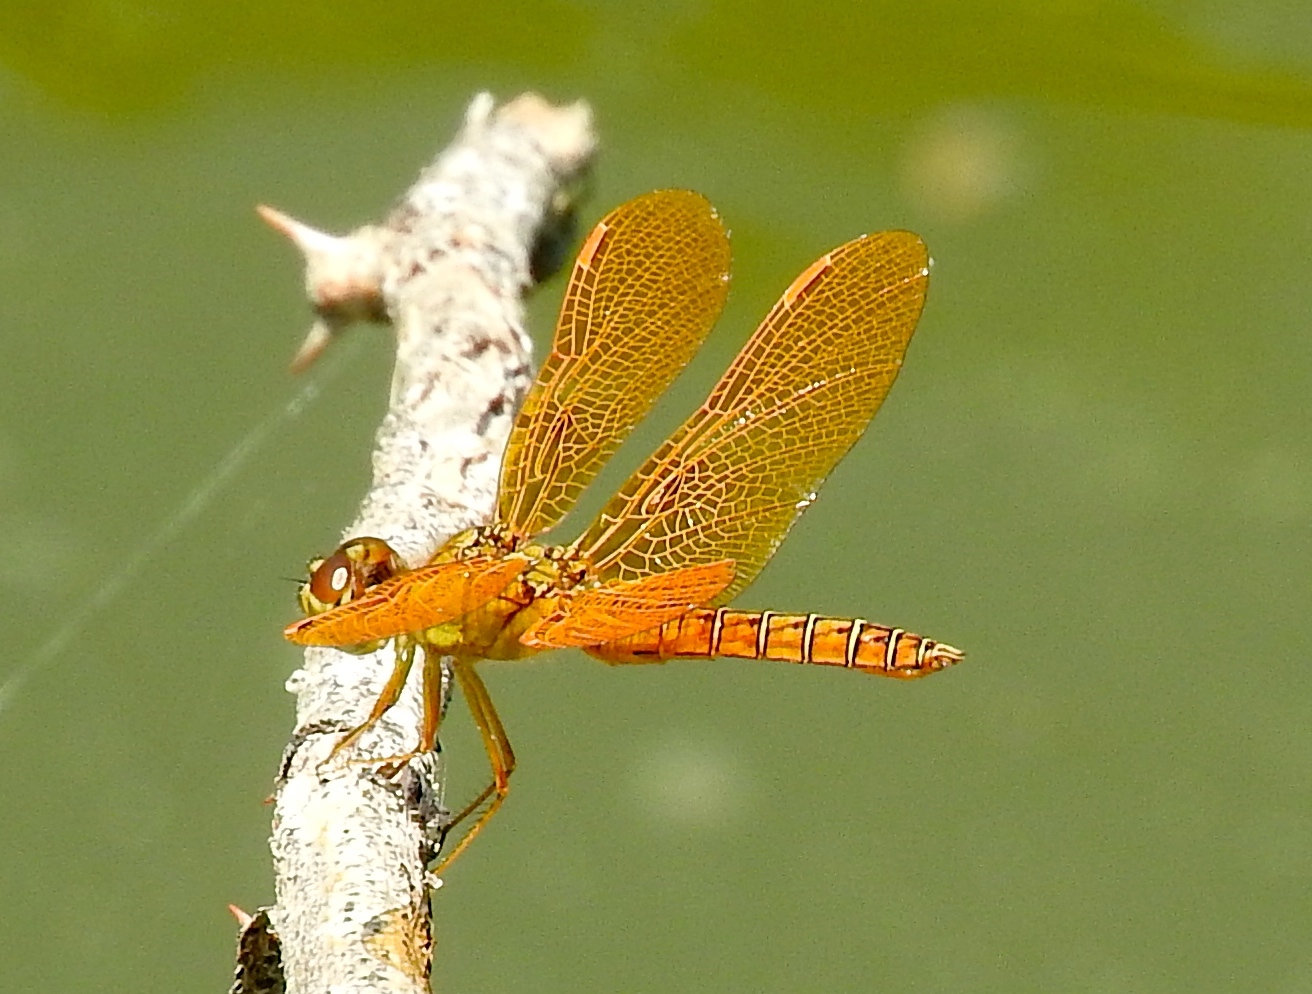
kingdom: Animalia
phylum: Arthropoda
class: Insecta
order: Odonata
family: Libellulidae
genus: Perithemis
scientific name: Perithemis intensa
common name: Mexican amberwing
